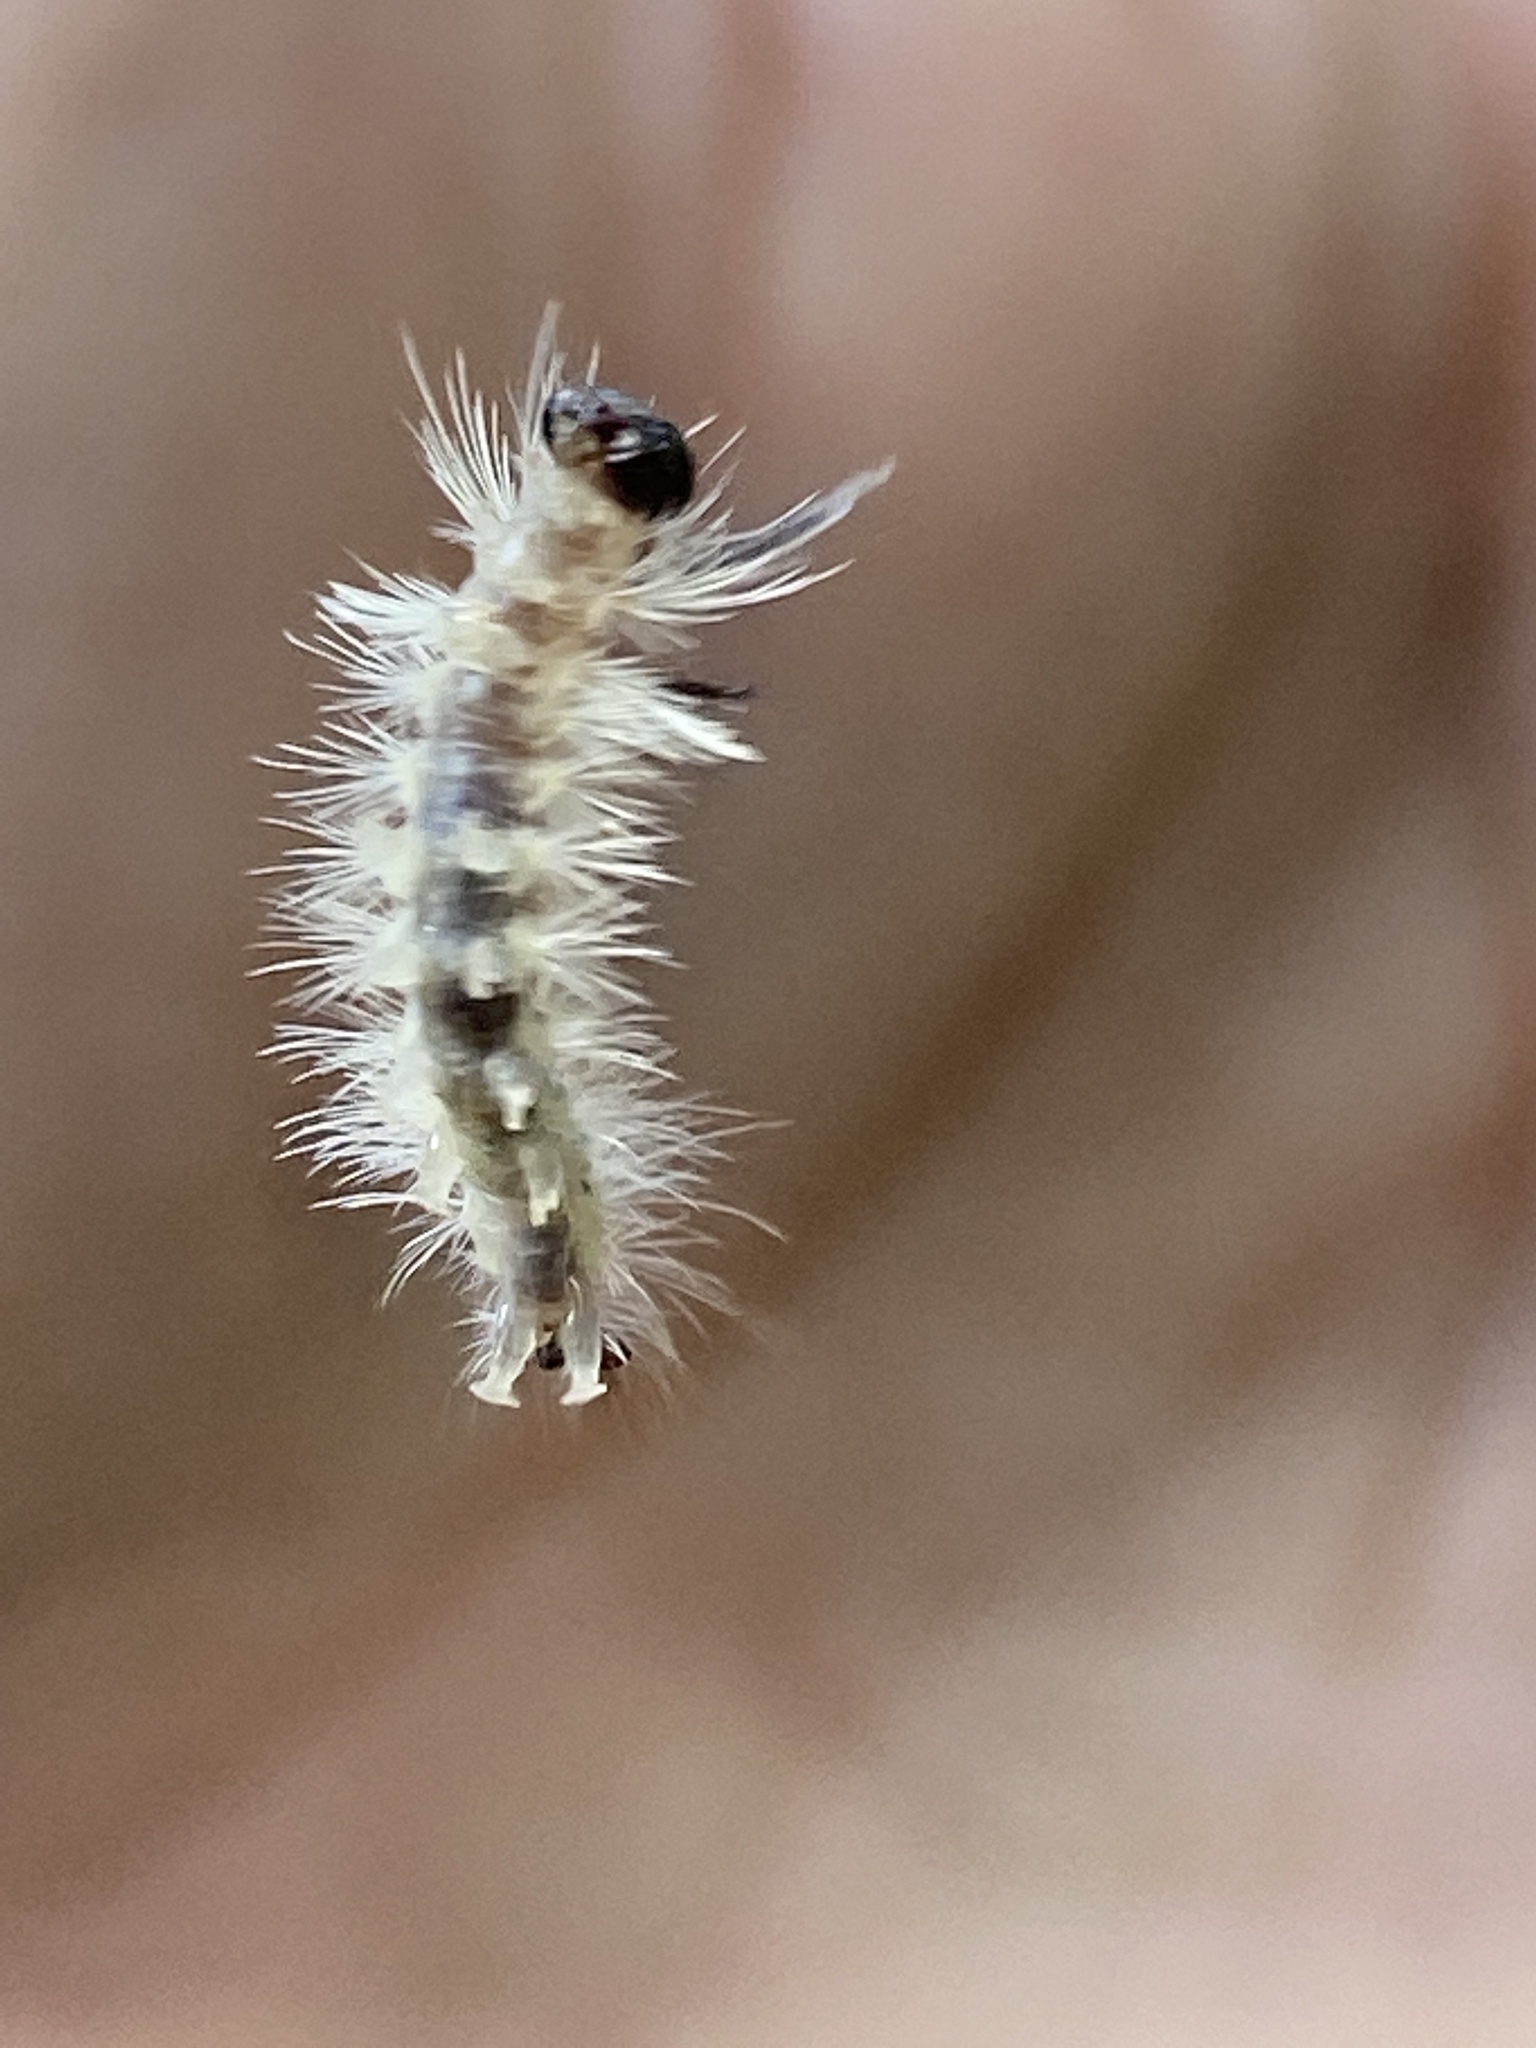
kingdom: Animalia
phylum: Arthropoda
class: Insecta
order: Lepidoptera
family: Erebidae
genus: Halysidota
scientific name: Halysidota tessellaris
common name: Banded tussock moth
